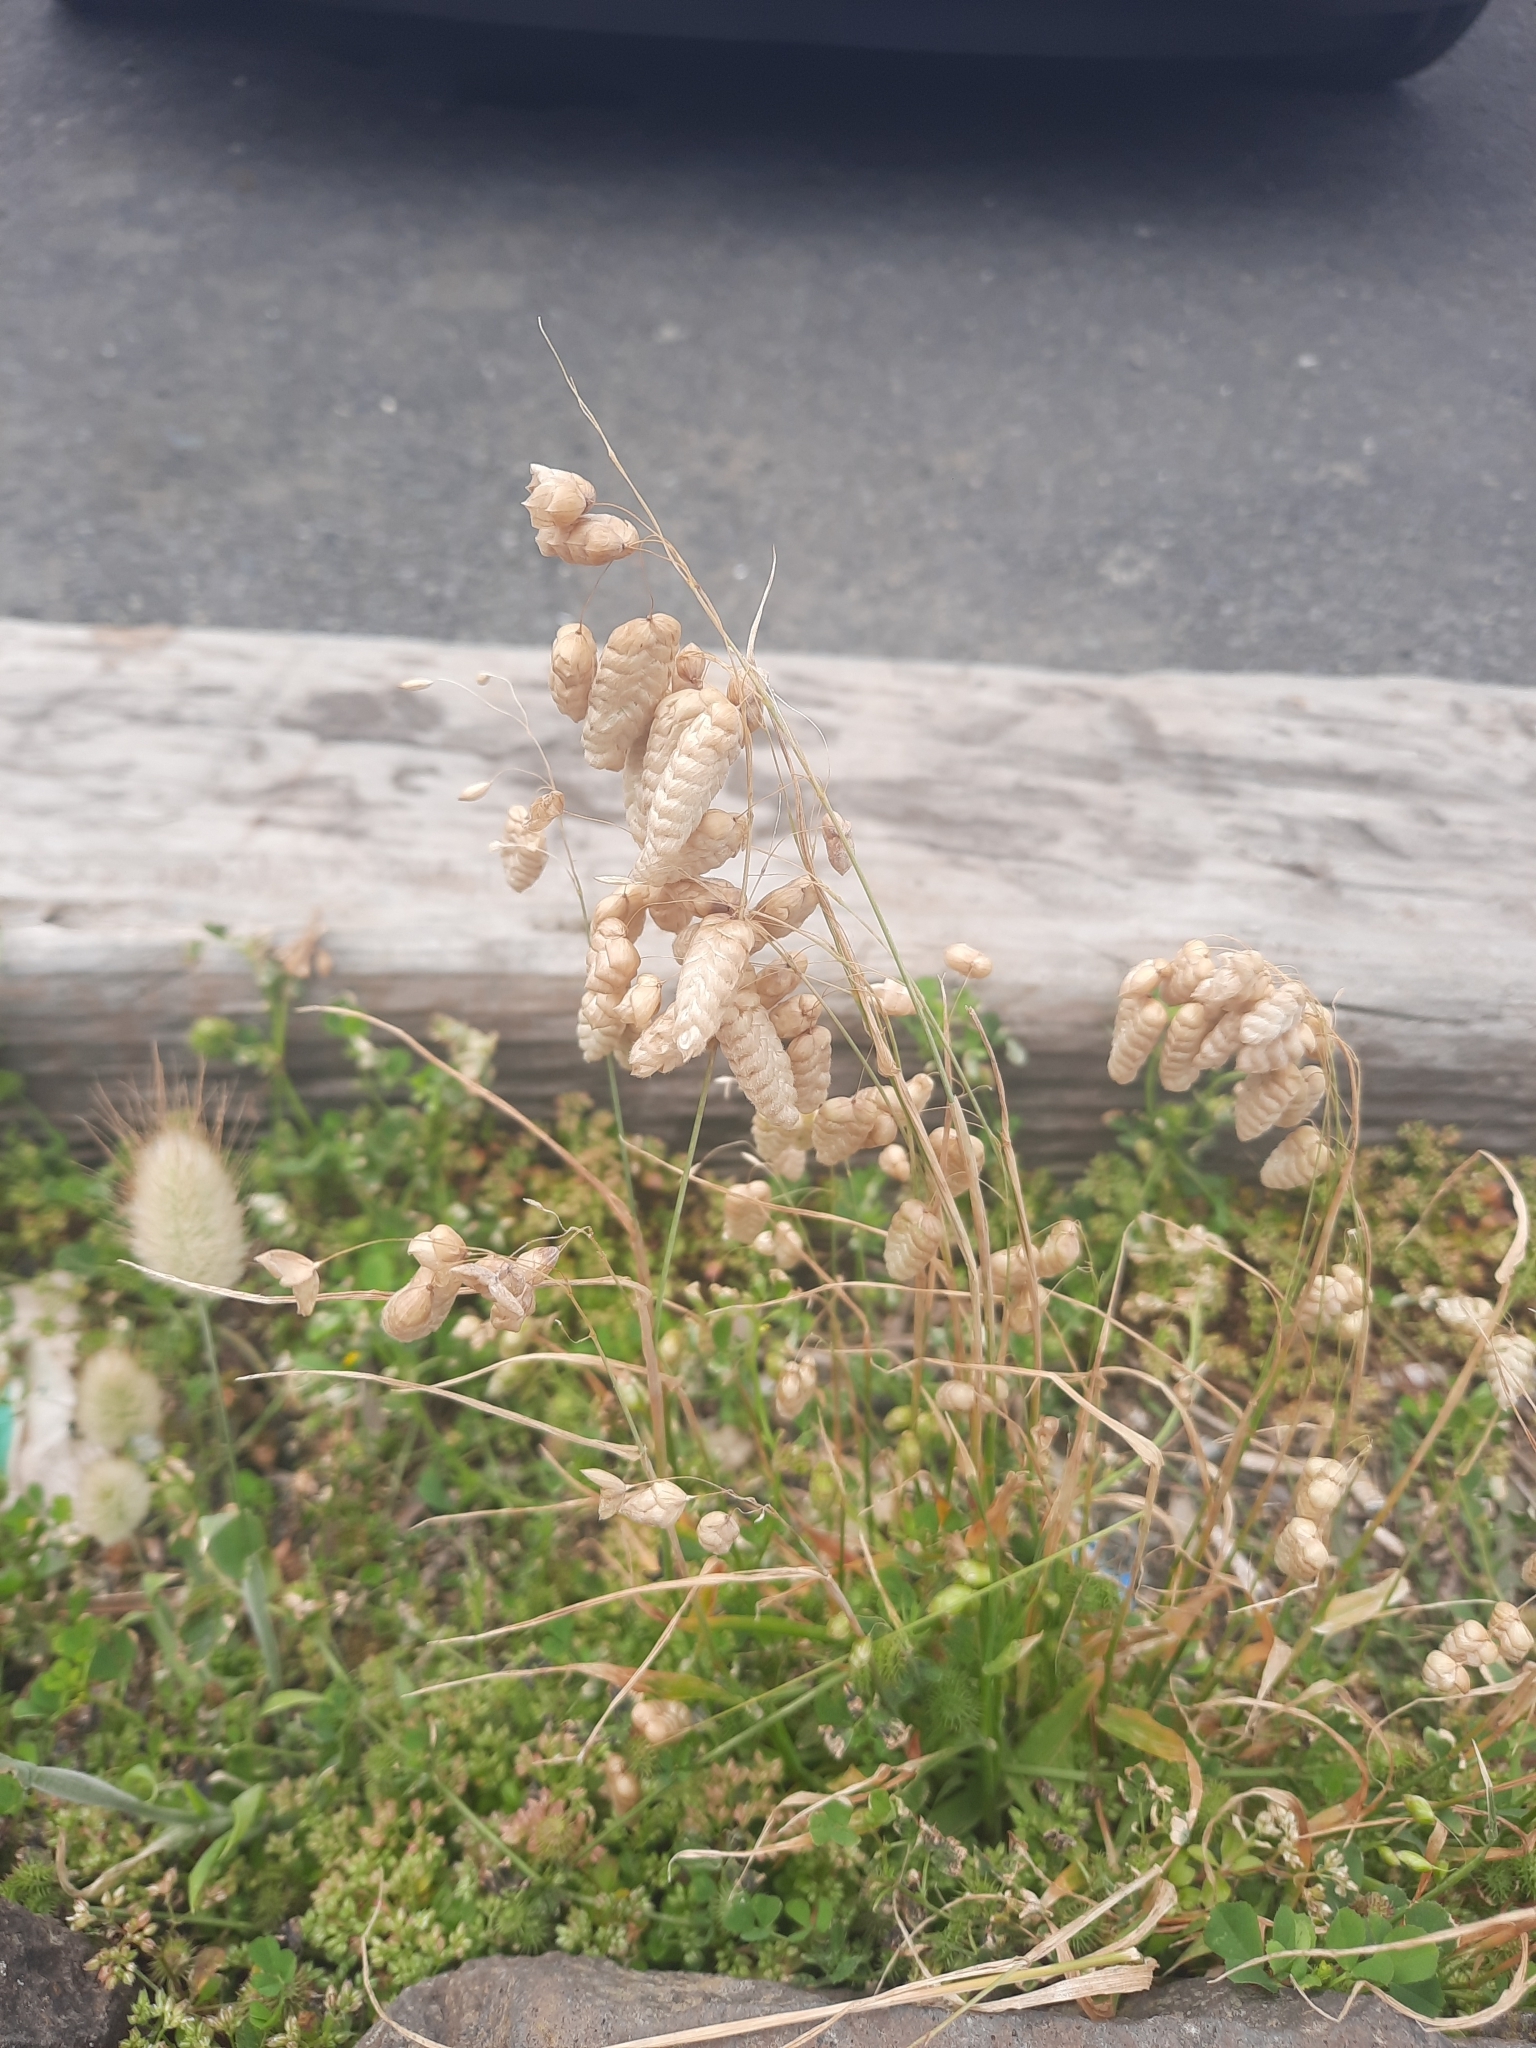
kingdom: Plantae
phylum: Tracheophyta
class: Liliopsida
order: Poales
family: Poaceae
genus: Briza
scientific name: Briza maxima
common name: Big quakinggrass
